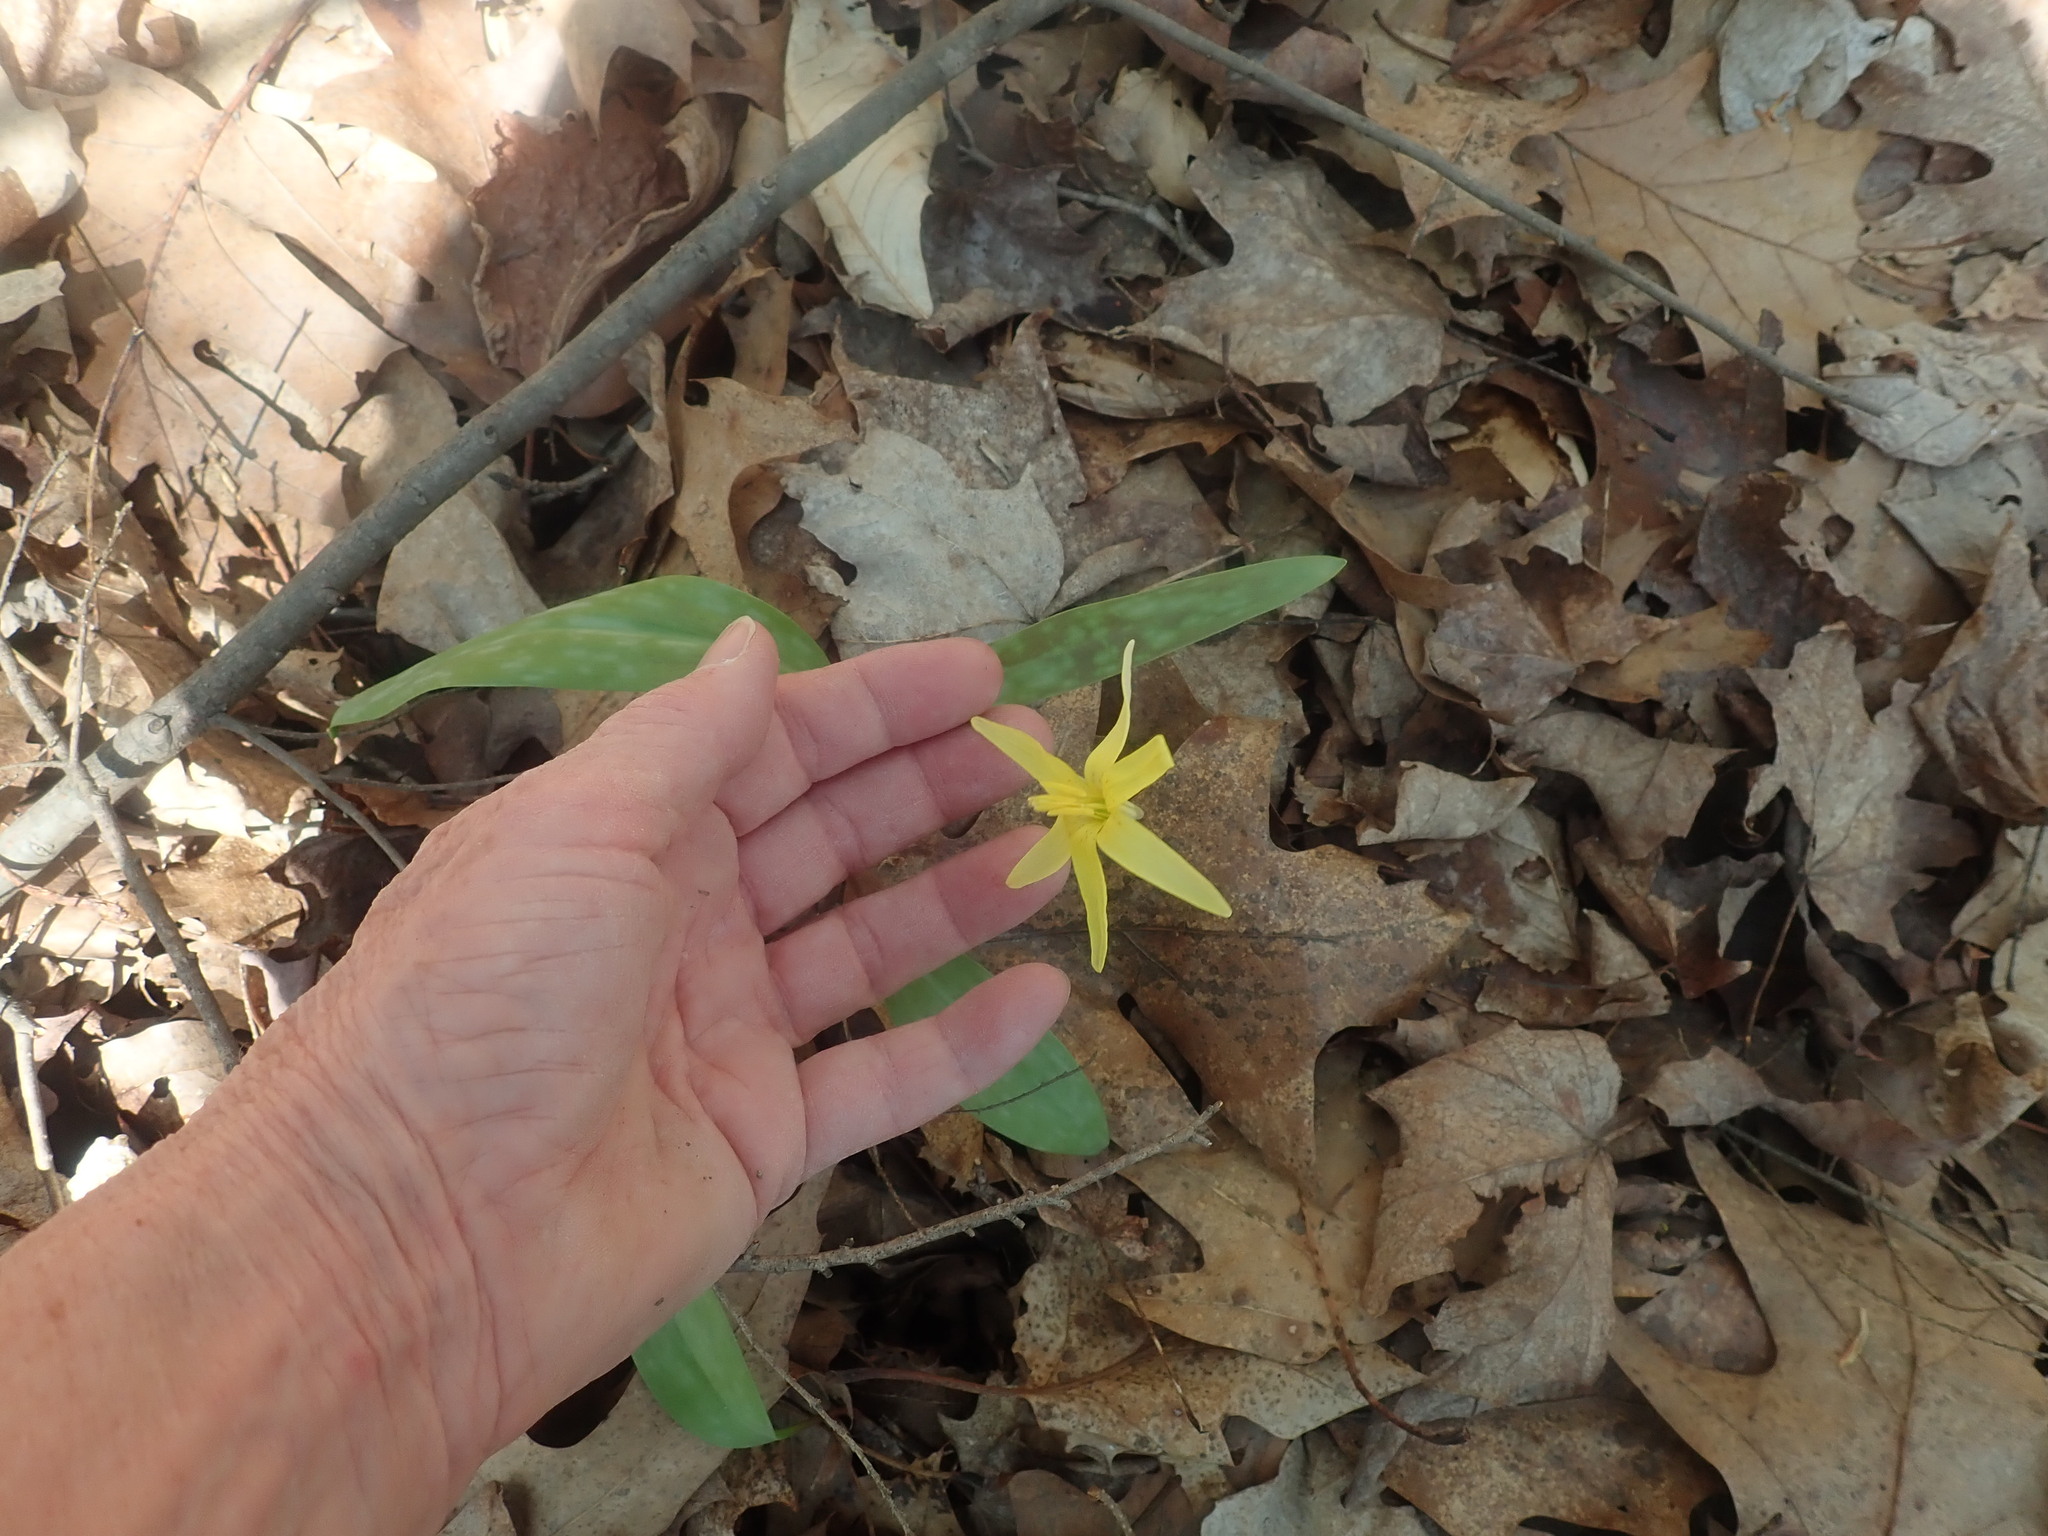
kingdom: Plantae
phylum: Tracheophyta
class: Liliopsida
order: Liliales
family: Liliaceae
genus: Erythronium
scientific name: Erythronium americanum
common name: Yellow adder's-tongue
